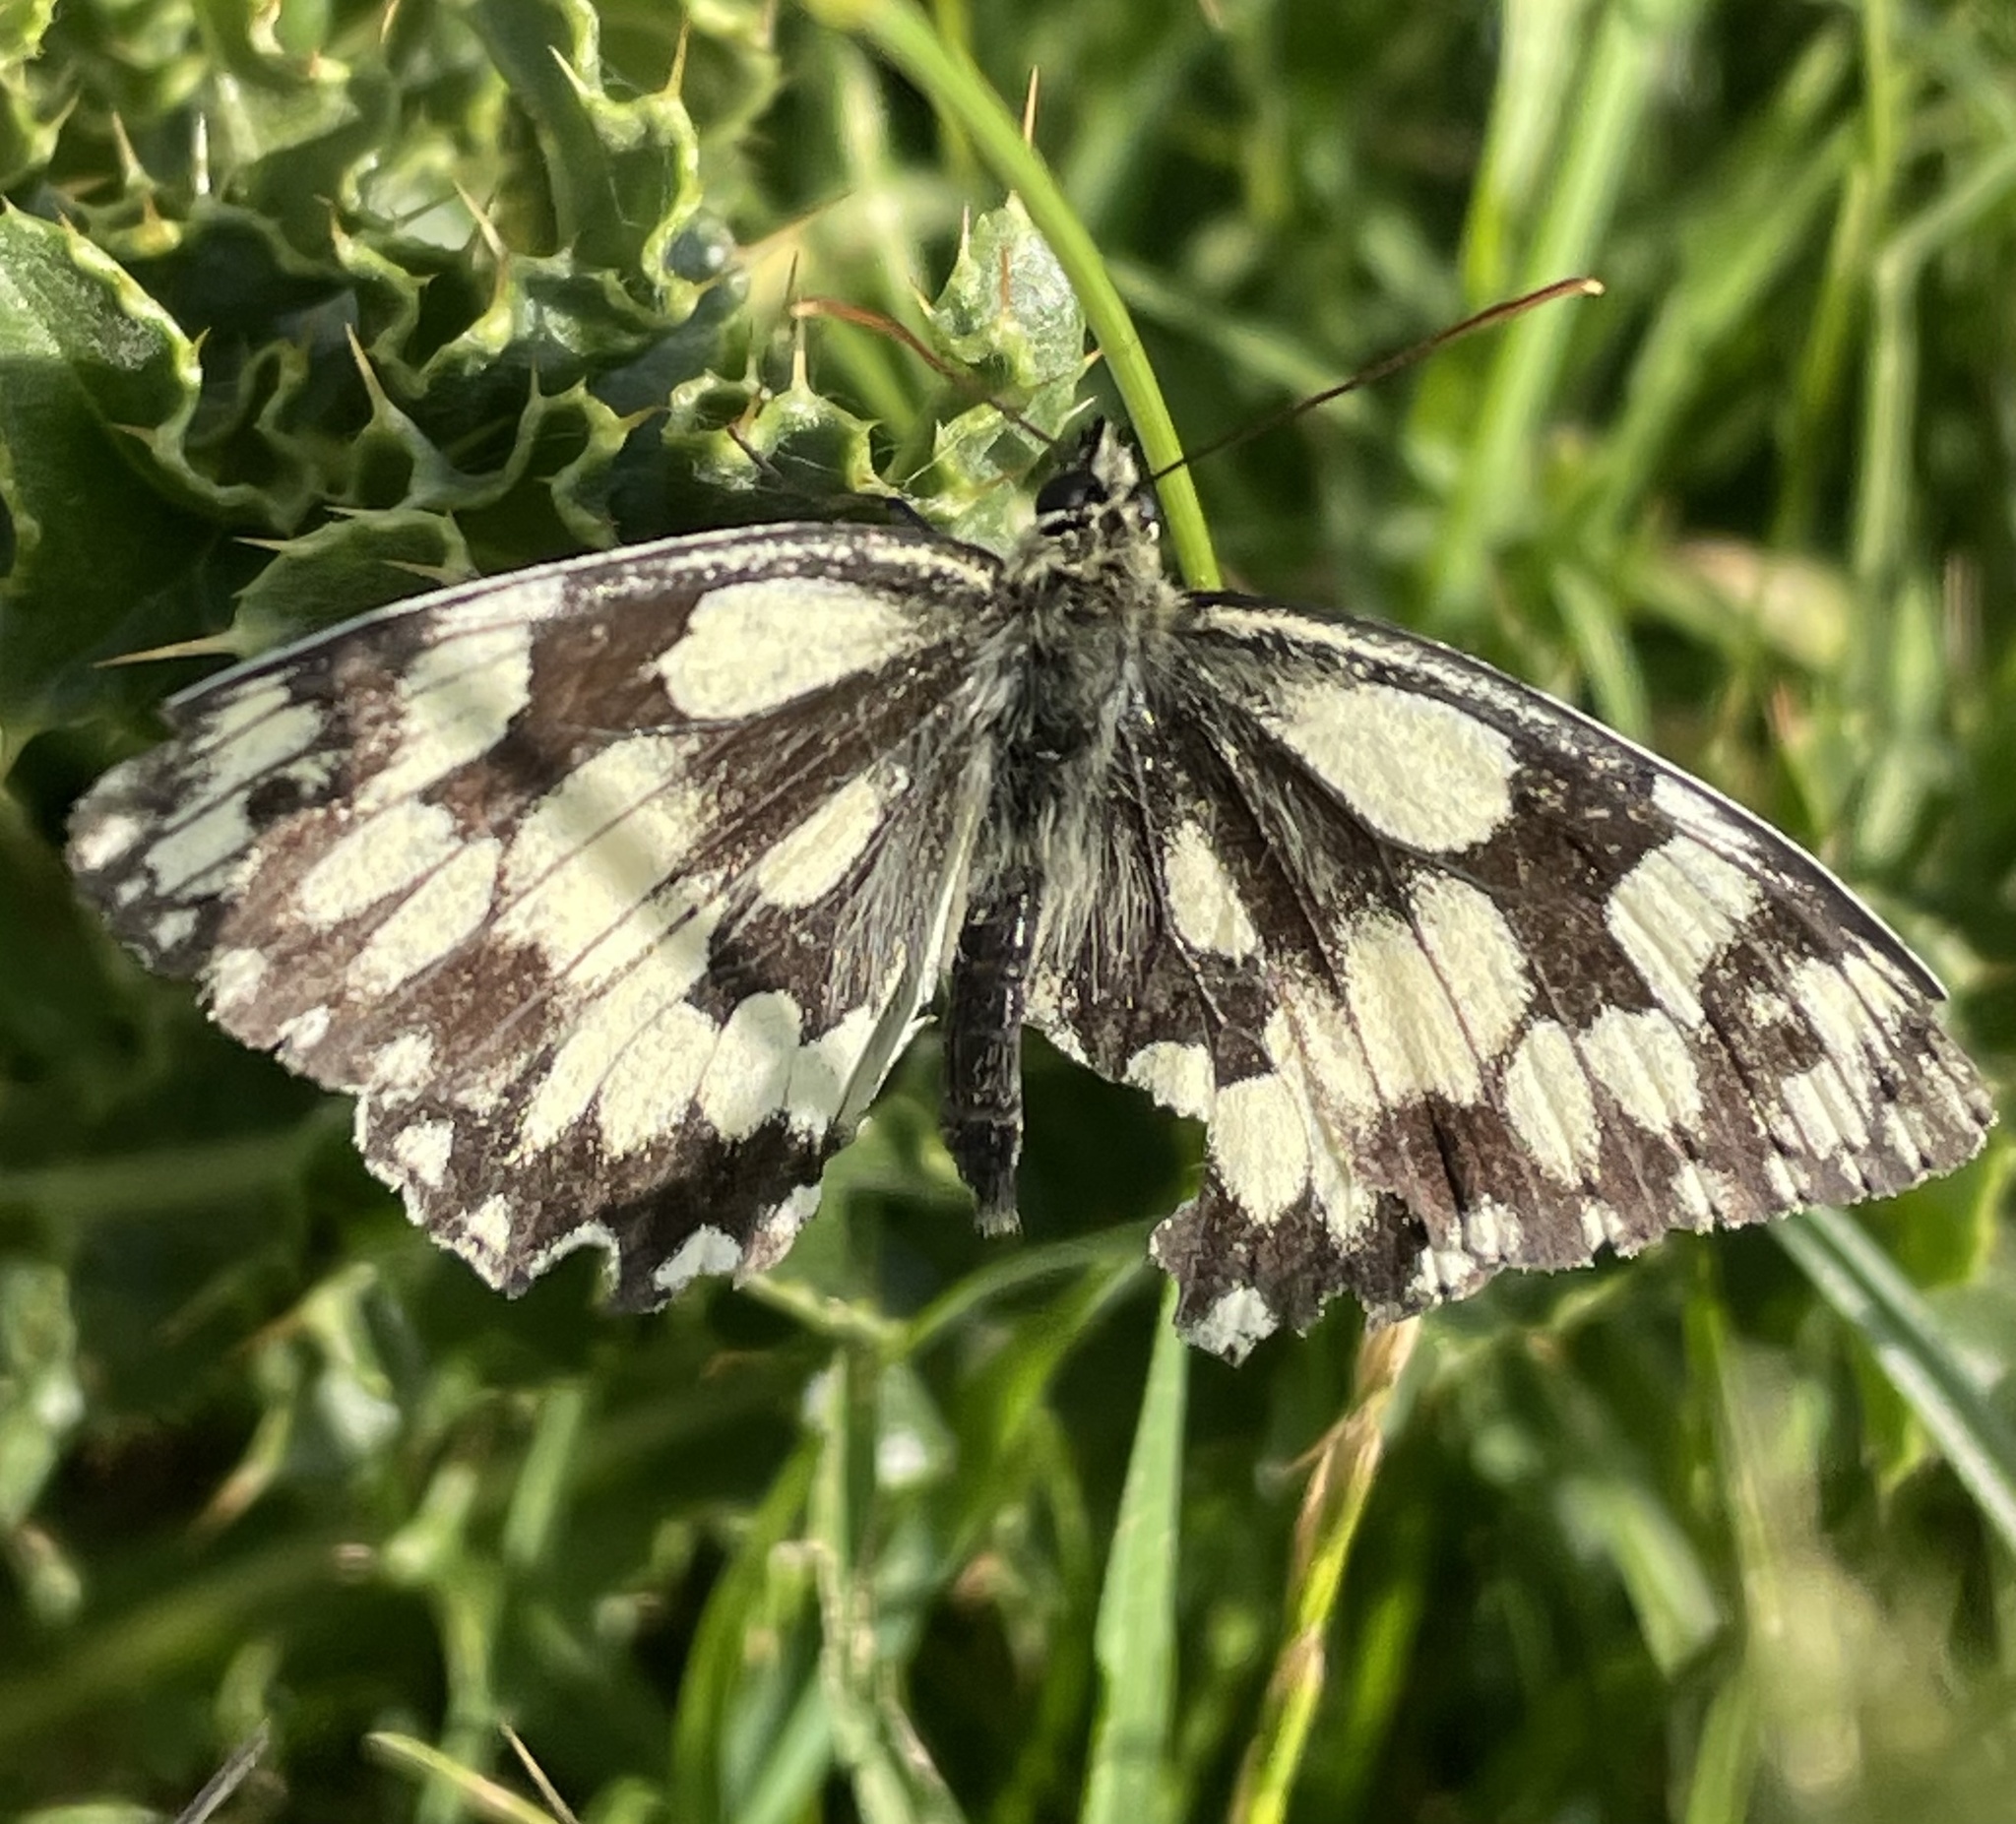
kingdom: Animalia
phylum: Arthropoda
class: Insecta
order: Lepidoptera
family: Nymphalidae
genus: Melanargia
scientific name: Melanargia galathea
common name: Marbled white
